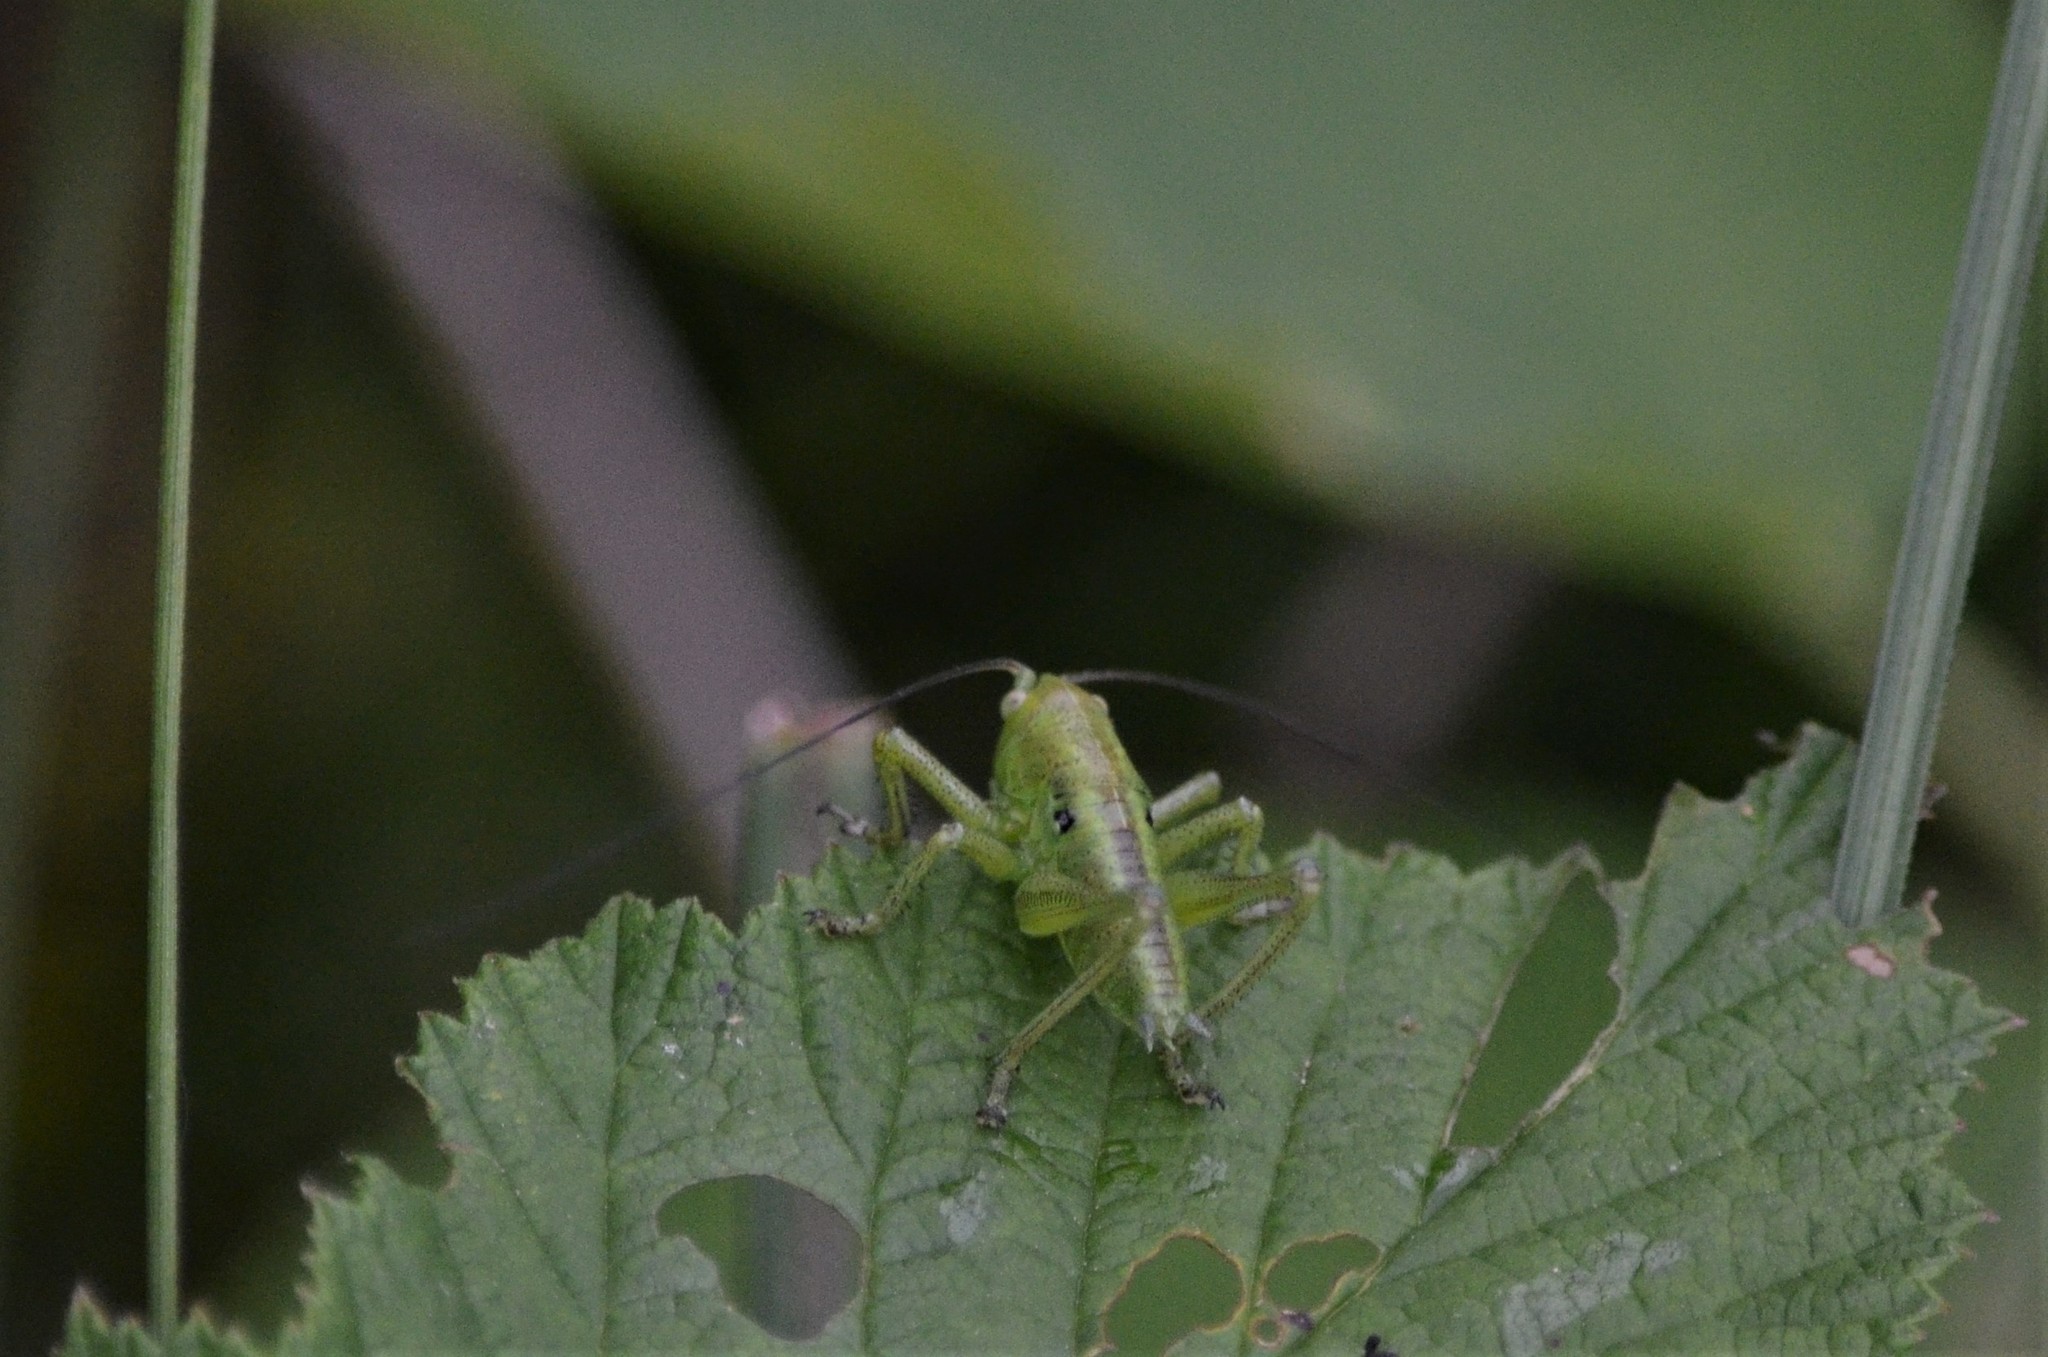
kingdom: Animalia
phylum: Arthropoda
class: Insecta
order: Orthoptera
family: Tettigoniidae
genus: Tettigonia
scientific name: Tettigonia cantans
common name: Upland green bush-cricket
